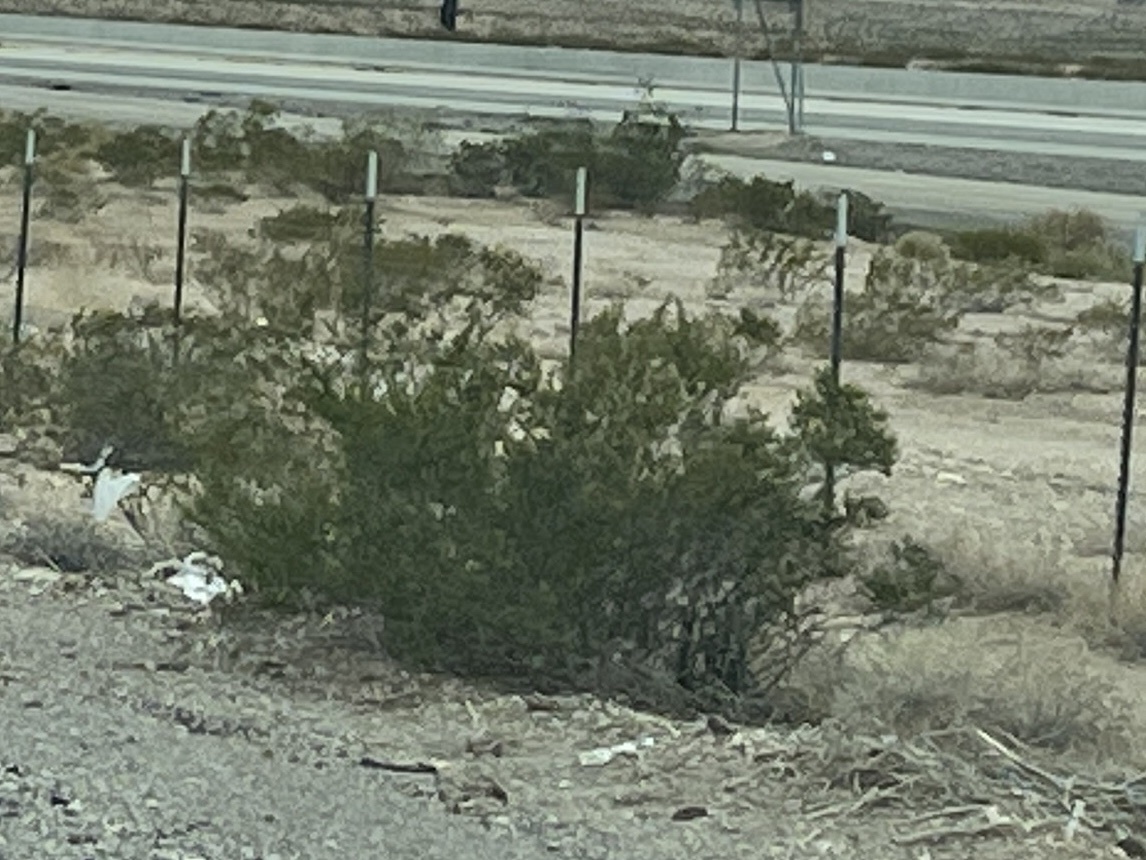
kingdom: Plantae
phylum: Tracheophyta
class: Magnoliopsida
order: Zygophyllales
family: Zygophyllaceae
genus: Larrea
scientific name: Larrea tridentata
